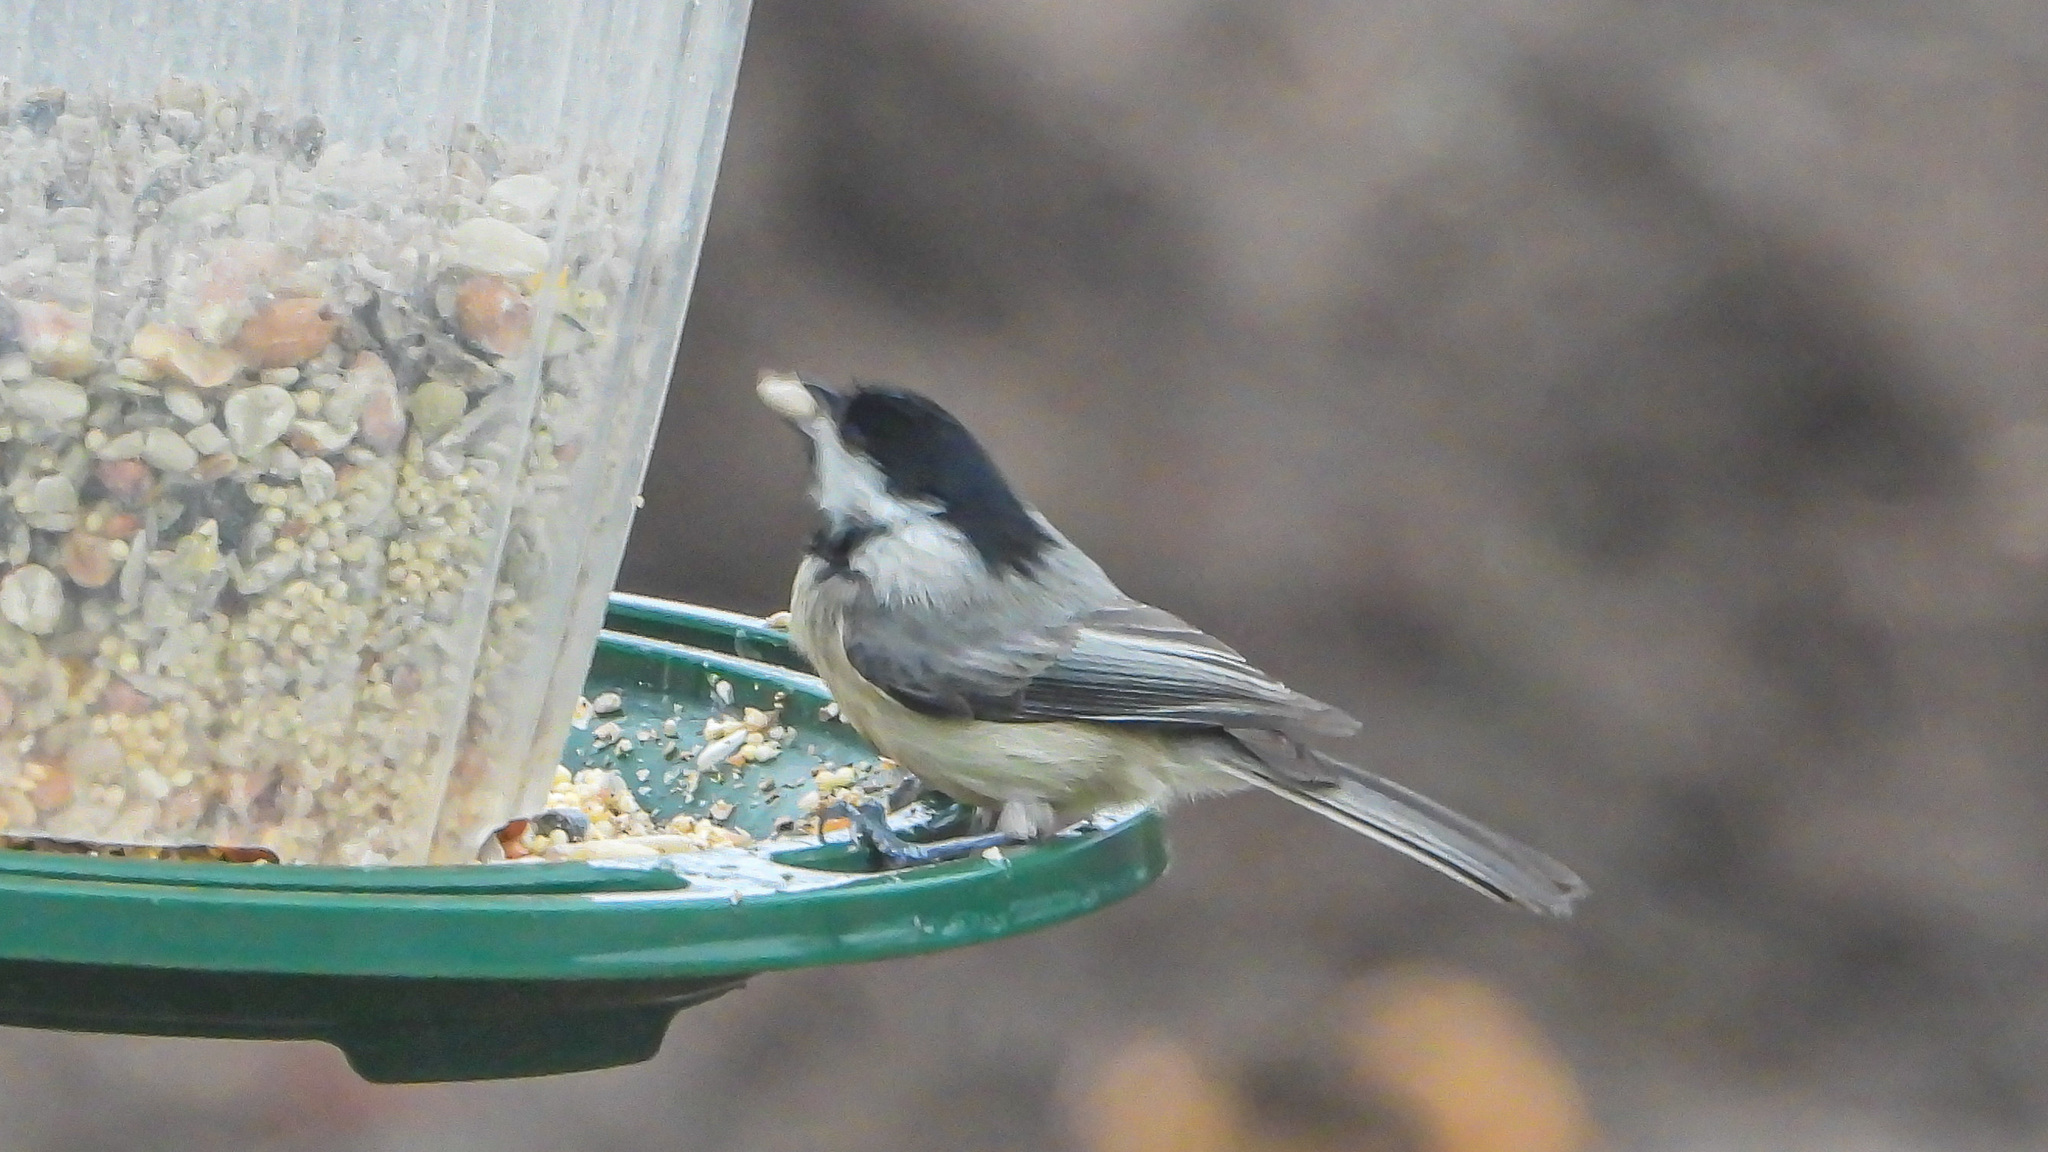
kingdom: Animalia
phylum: Chordata
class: Aves
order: Passeriformes
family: Paridae
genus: Poecile
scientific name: Poecile carolinensis
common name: Carolina chickadee
